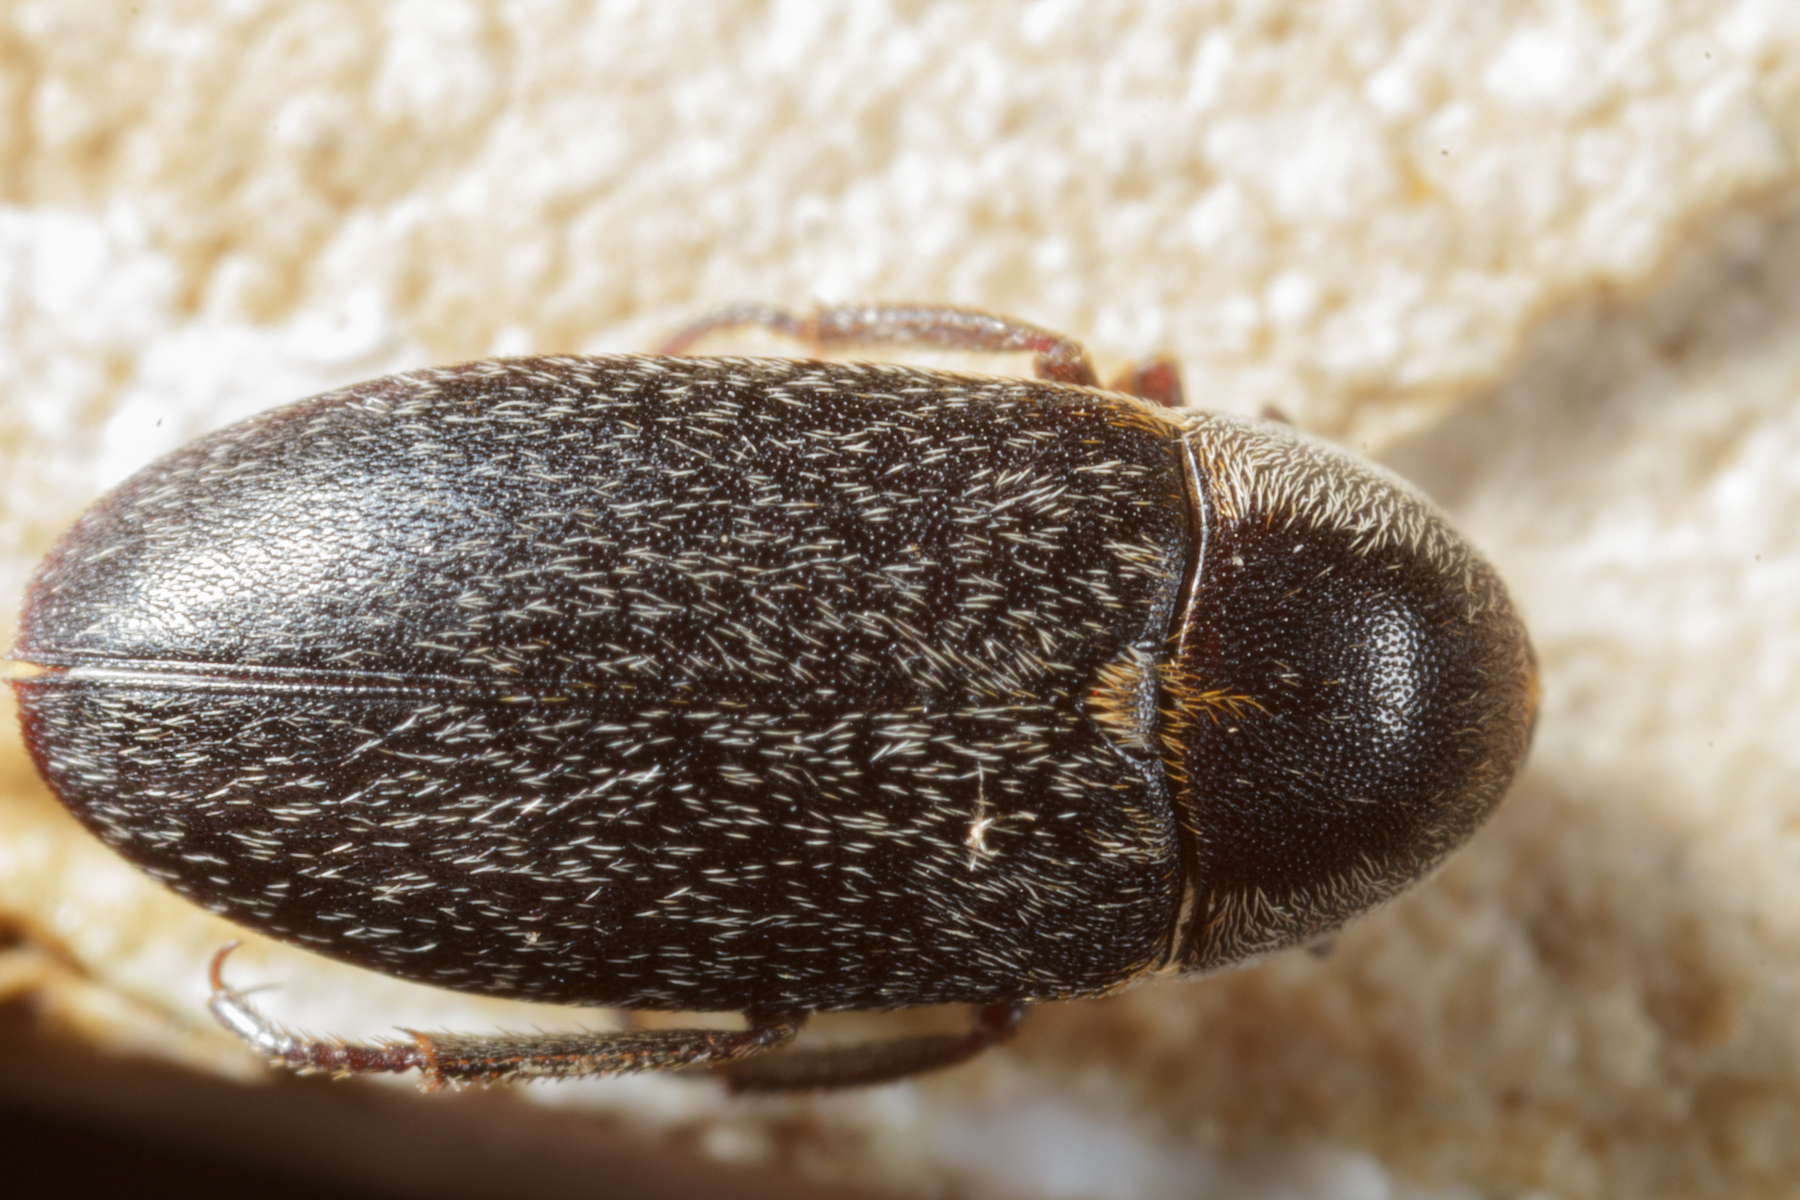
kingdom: Animalia
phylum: Arthropoda
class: Insecta
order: Coleoptera
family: Dermestidae
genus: Dermestes
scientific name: Dermestes maculatus
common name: Hide beetle
